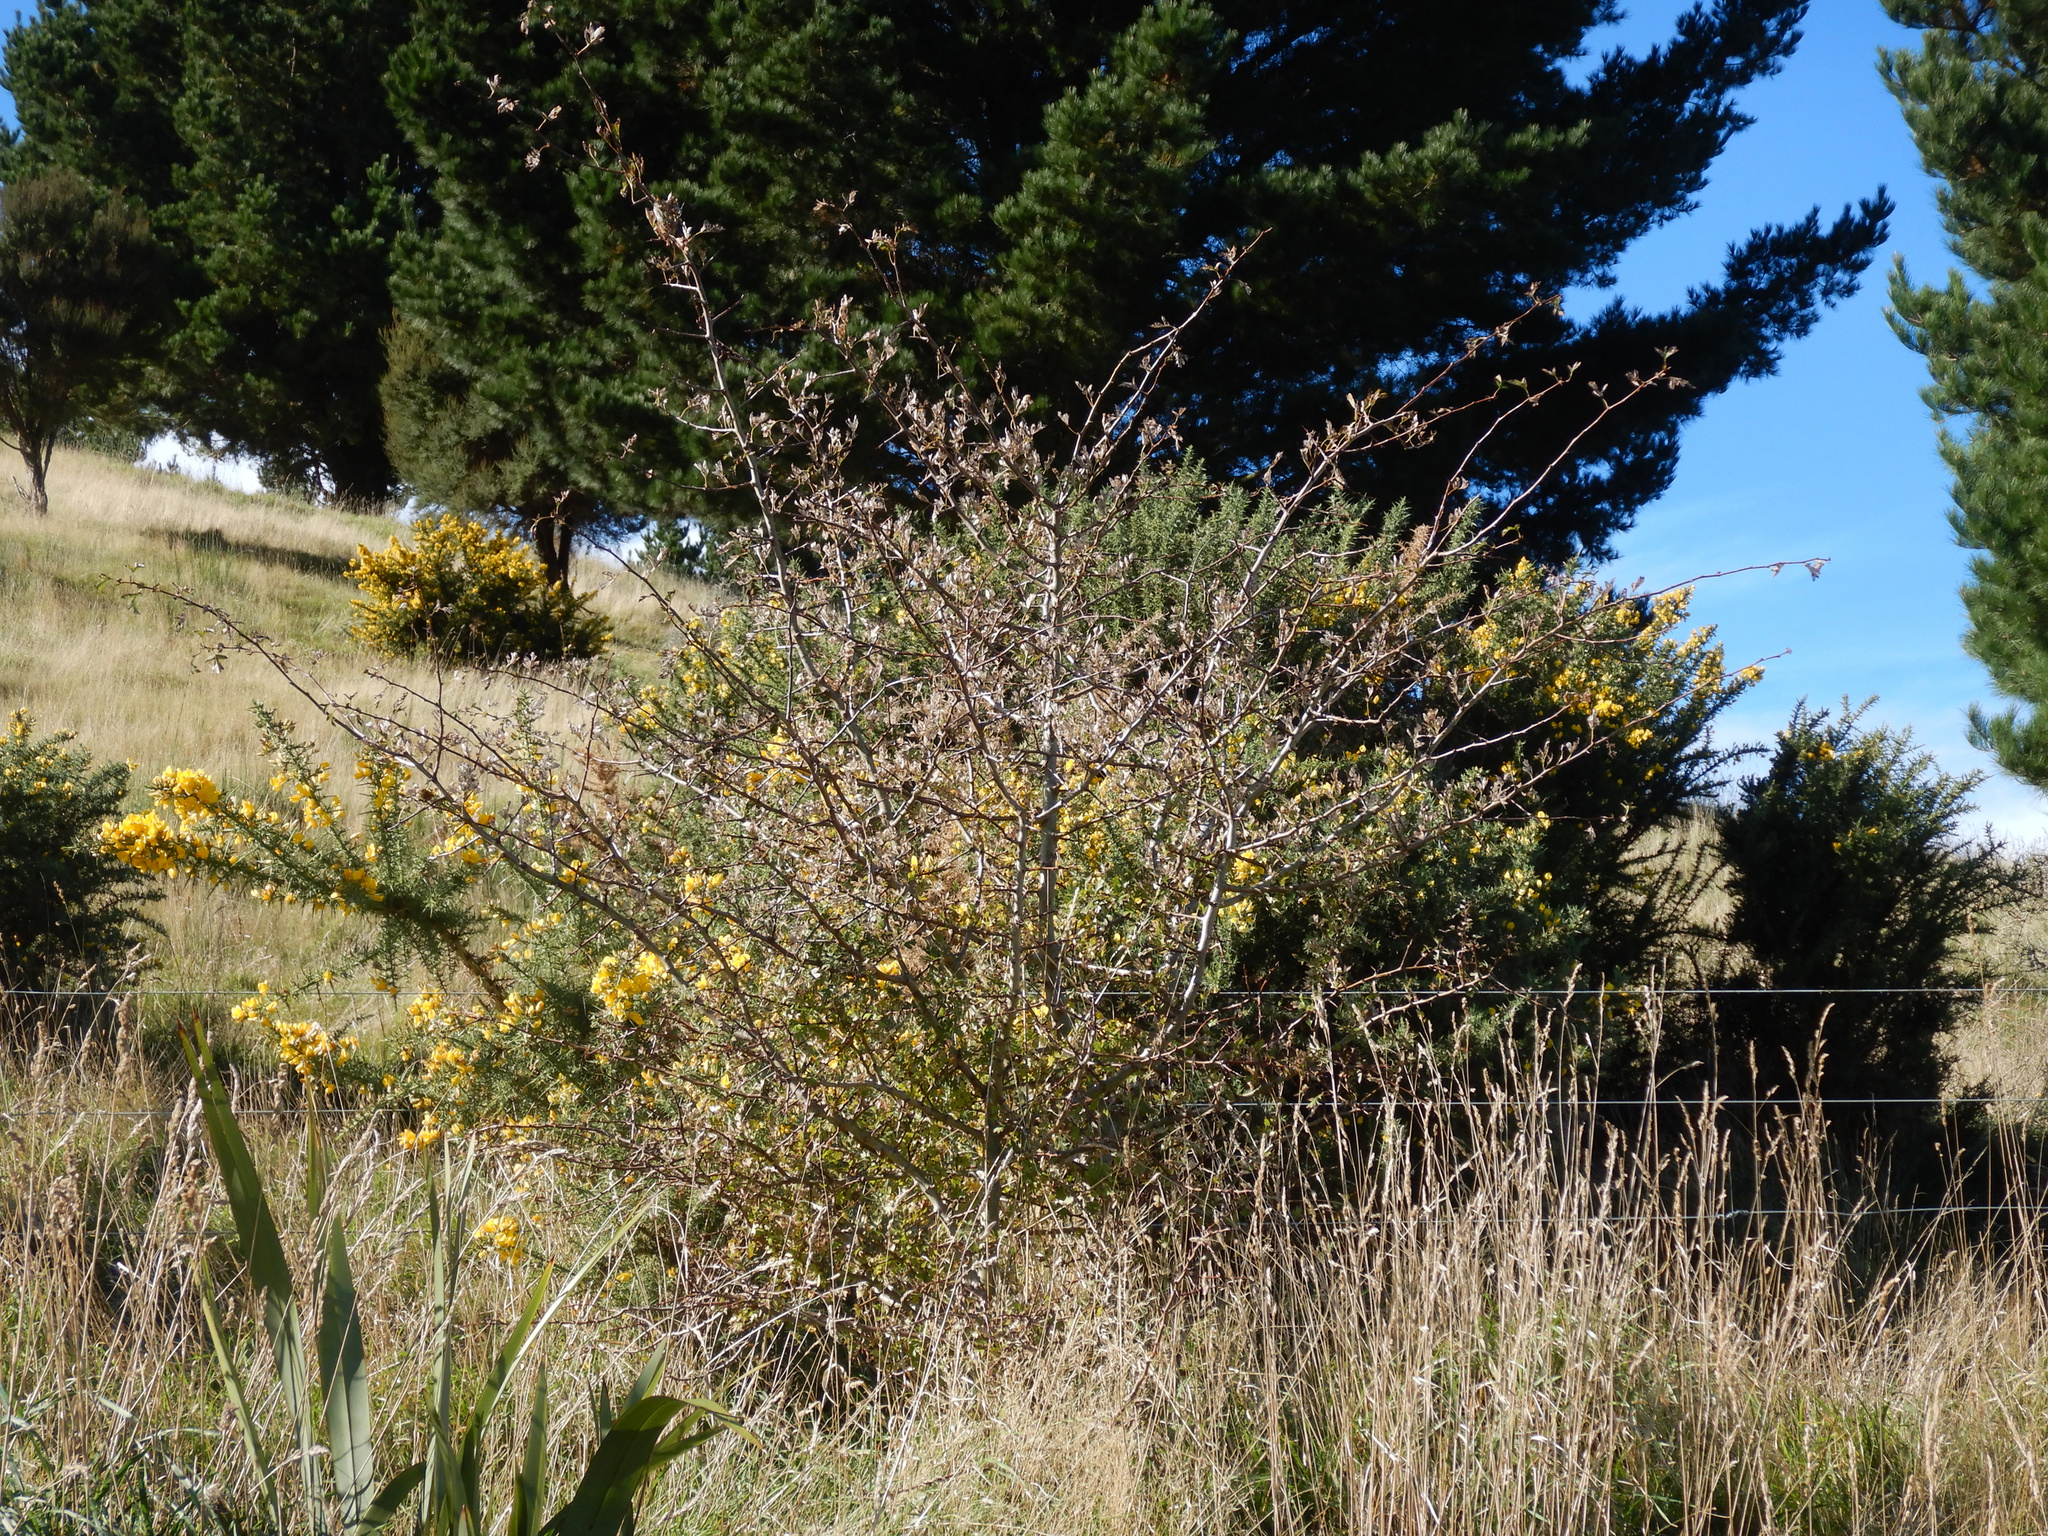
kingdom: Plantae
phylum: Tracheophyta
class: Magnoliopsida
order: Rosales
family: Rosaceae
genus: Crataegus
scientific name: Crataegus monogyna
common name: Hawthorn
